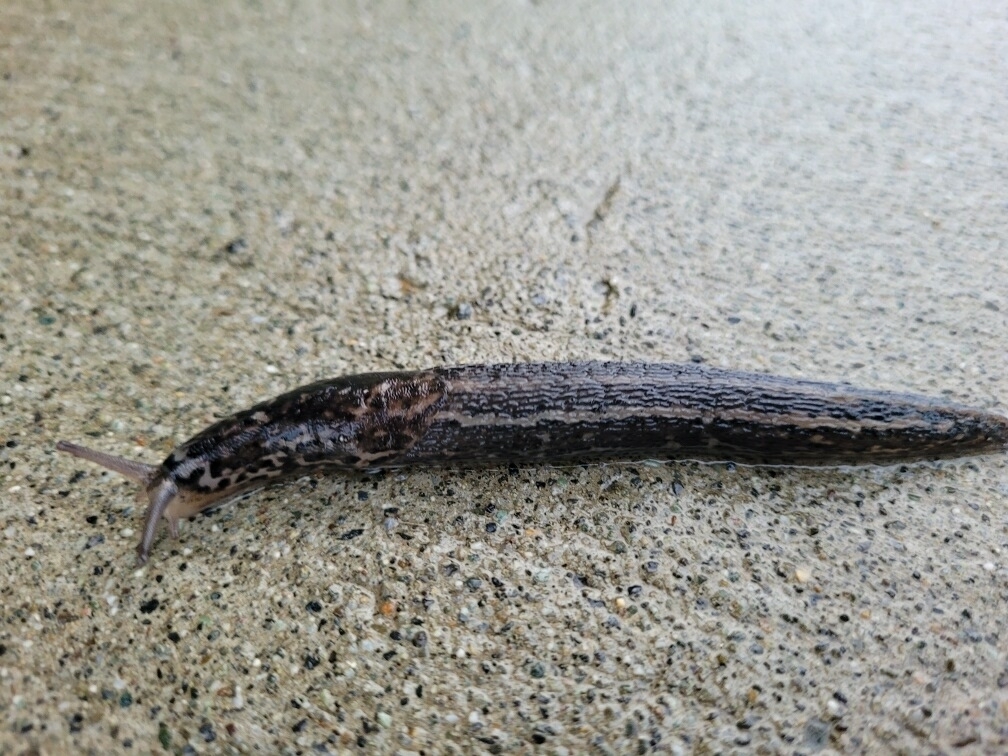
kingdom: Animalia
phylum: Mollusca
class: Gastropoda
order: Stylommatophora
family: Limacidae
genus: Limax
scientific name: Limax maximus
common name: Great grey slug
